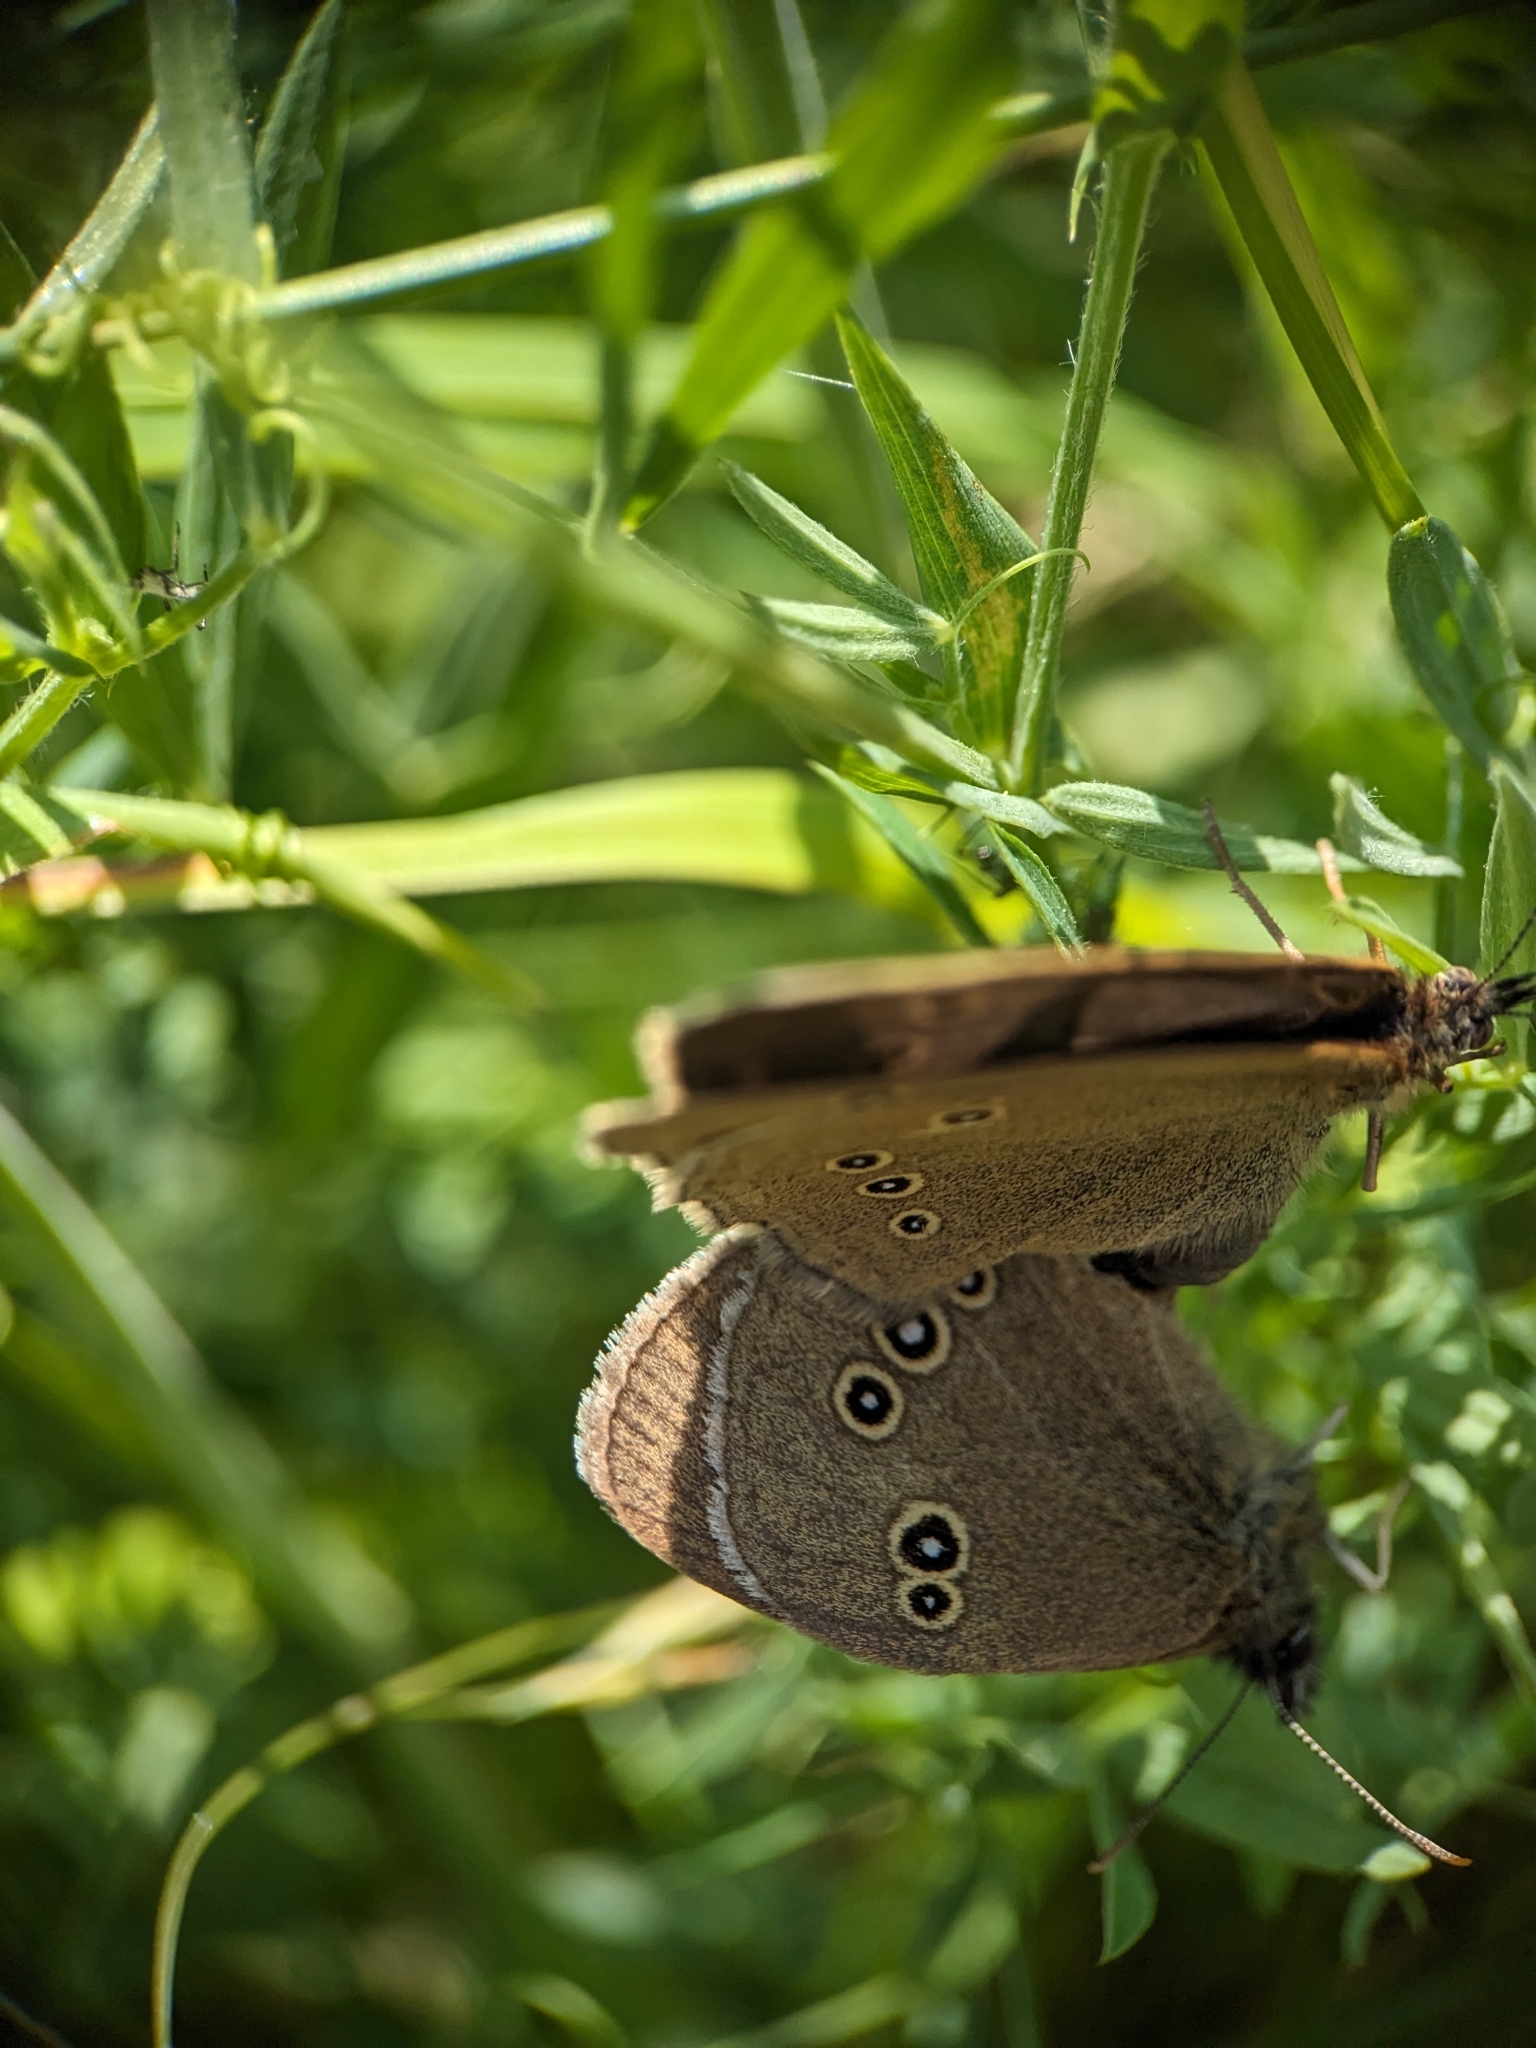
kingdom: Animalia
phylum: Arthropoda
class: Insecta
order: Lepidoptera
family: Nymphalidae
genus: Aphantopus
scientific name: Aphantopus hyperantus
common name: Ringlet
